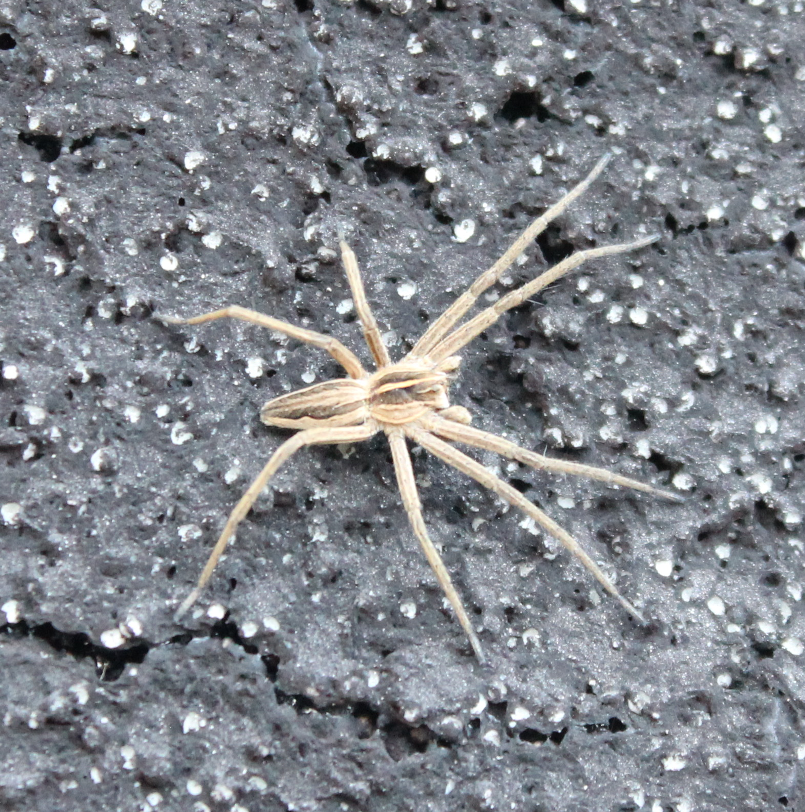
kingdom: Animalia
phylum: Arthropoda
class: Arachnida
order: Araneae
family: Pisauridae
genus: Pisaura
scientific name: Pisaura mirabilis
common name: Tent spider
